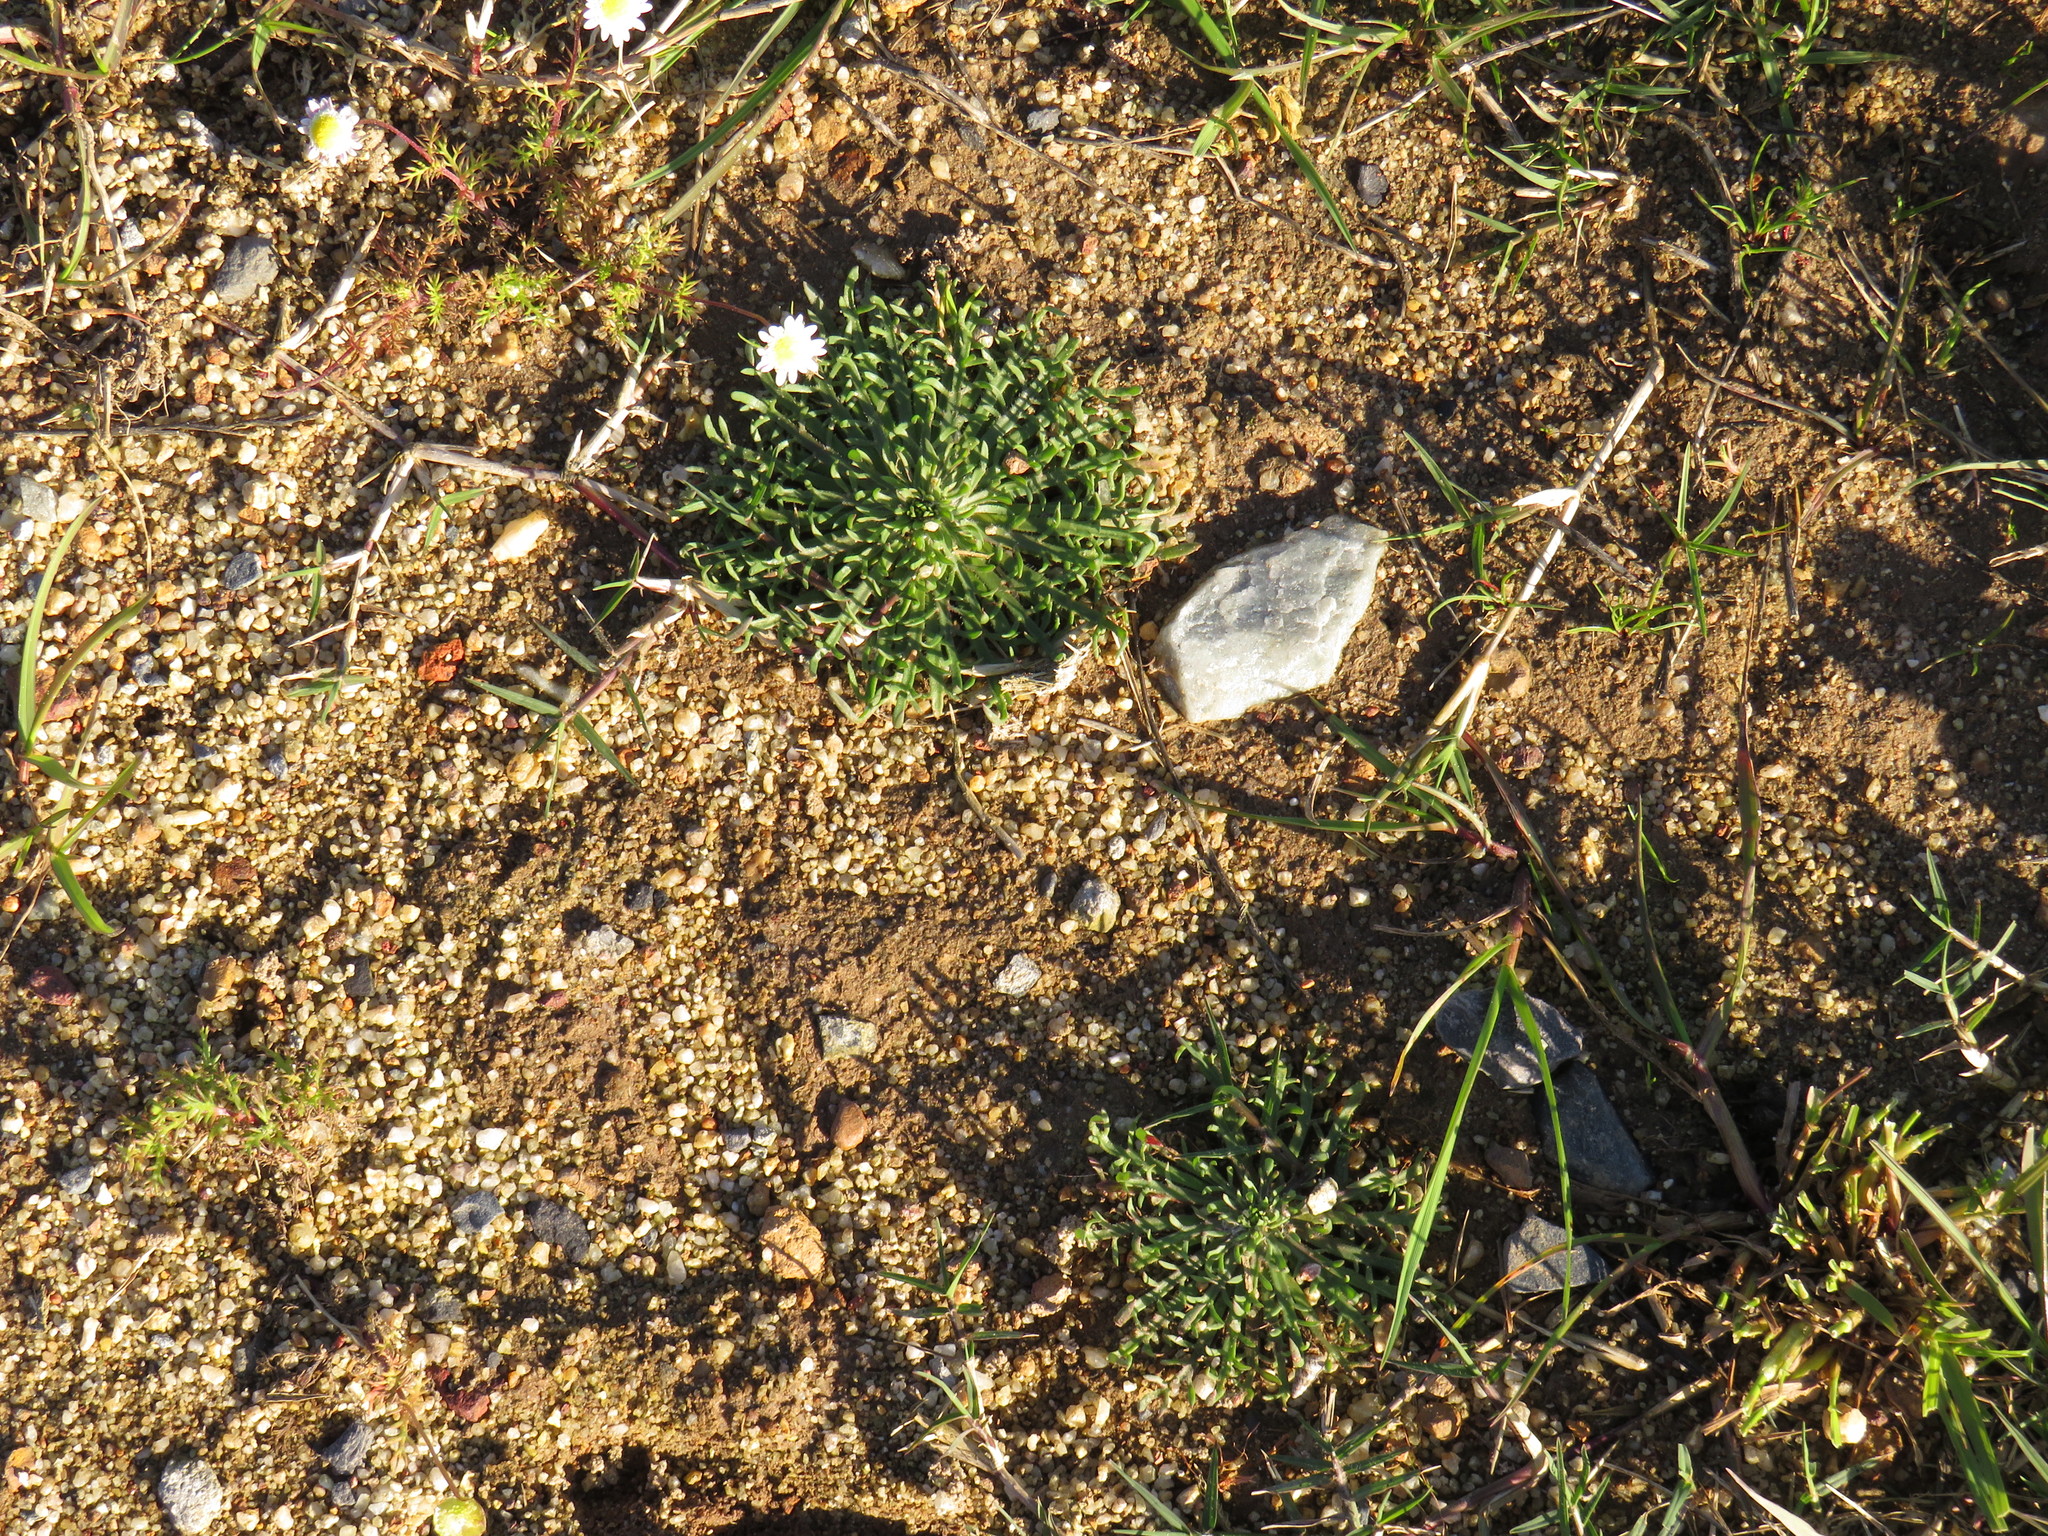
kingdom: Plantae
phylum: Tracheophyta
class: Magnoliopsida
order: Lamiales
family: Plantaginaceae
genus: Plantago
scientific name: Plantago coronopus
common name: Buck's-horn plantain
